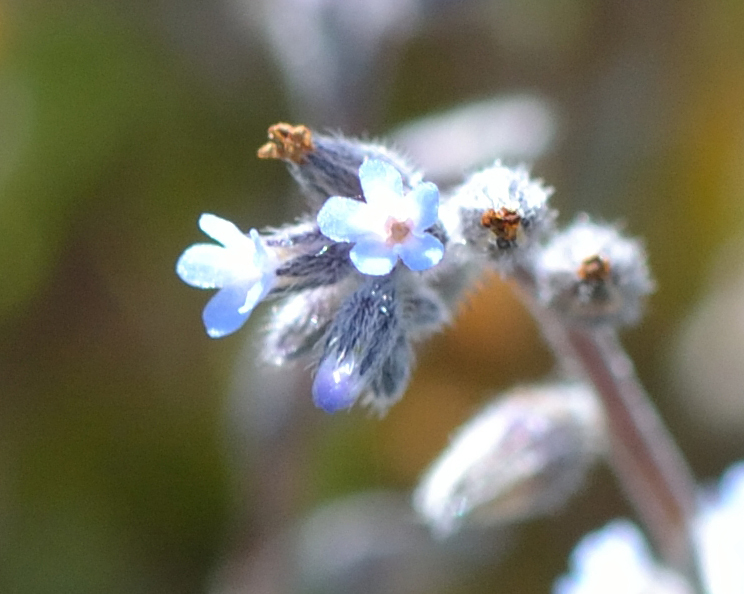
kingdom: Plantae
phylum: Tracheophyta
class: Magnoliopsida
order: Boraginales
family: Boraginaceae
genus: Myosotis
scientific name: Myosotis stricta
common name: Strict forget-me-not
